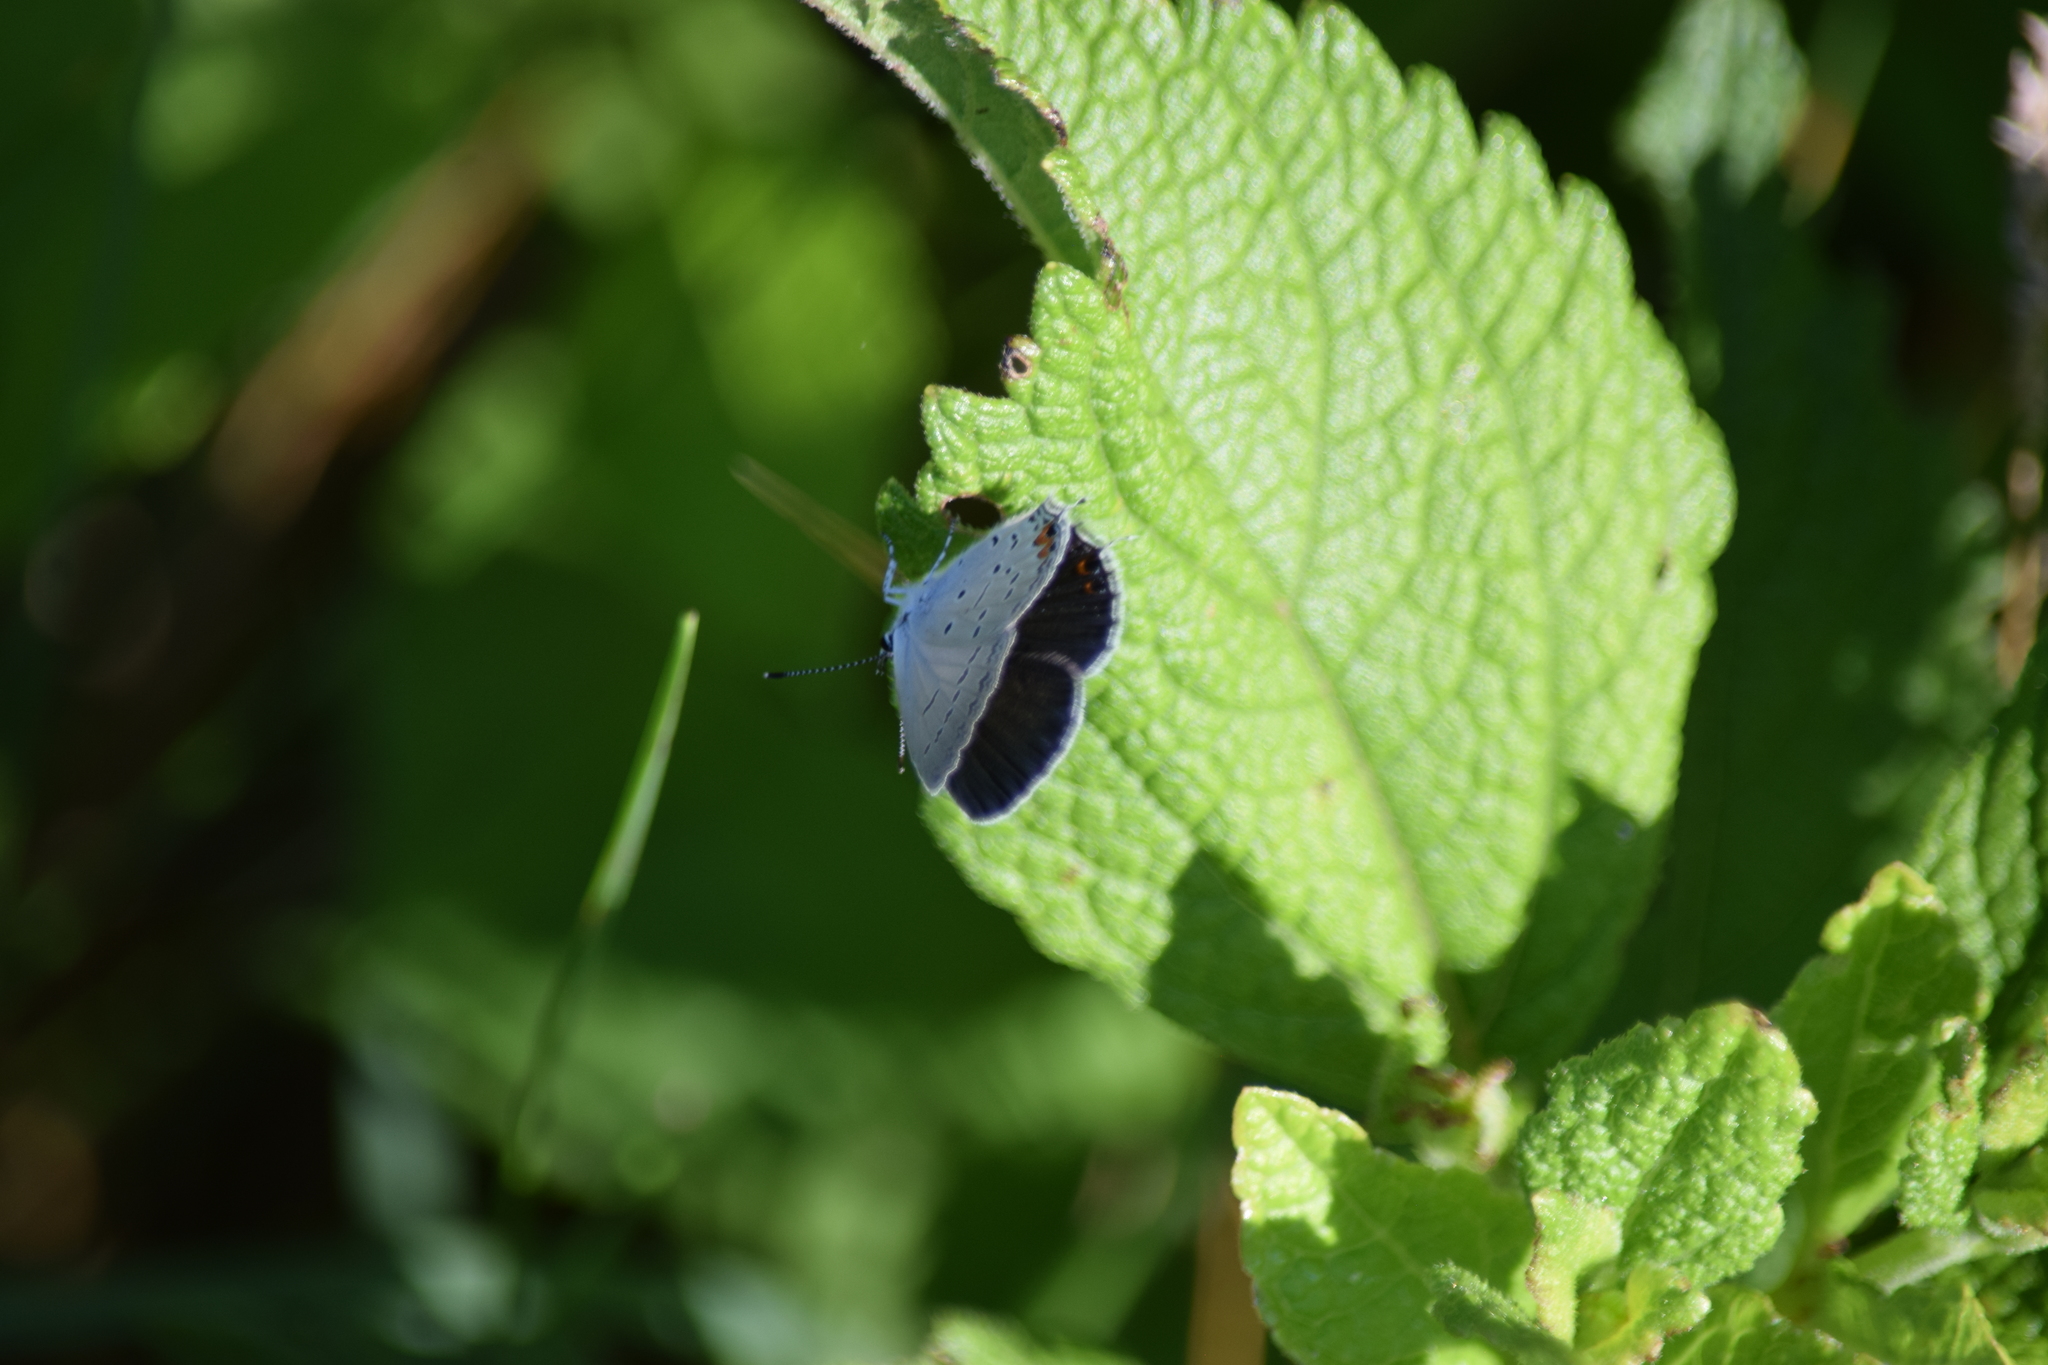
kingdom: Animalia
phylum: Arthropoda
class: Insecta
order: Lepidoptera
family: Lycaenidae
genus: Elkalyce
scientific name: Elkalyce comyntas
